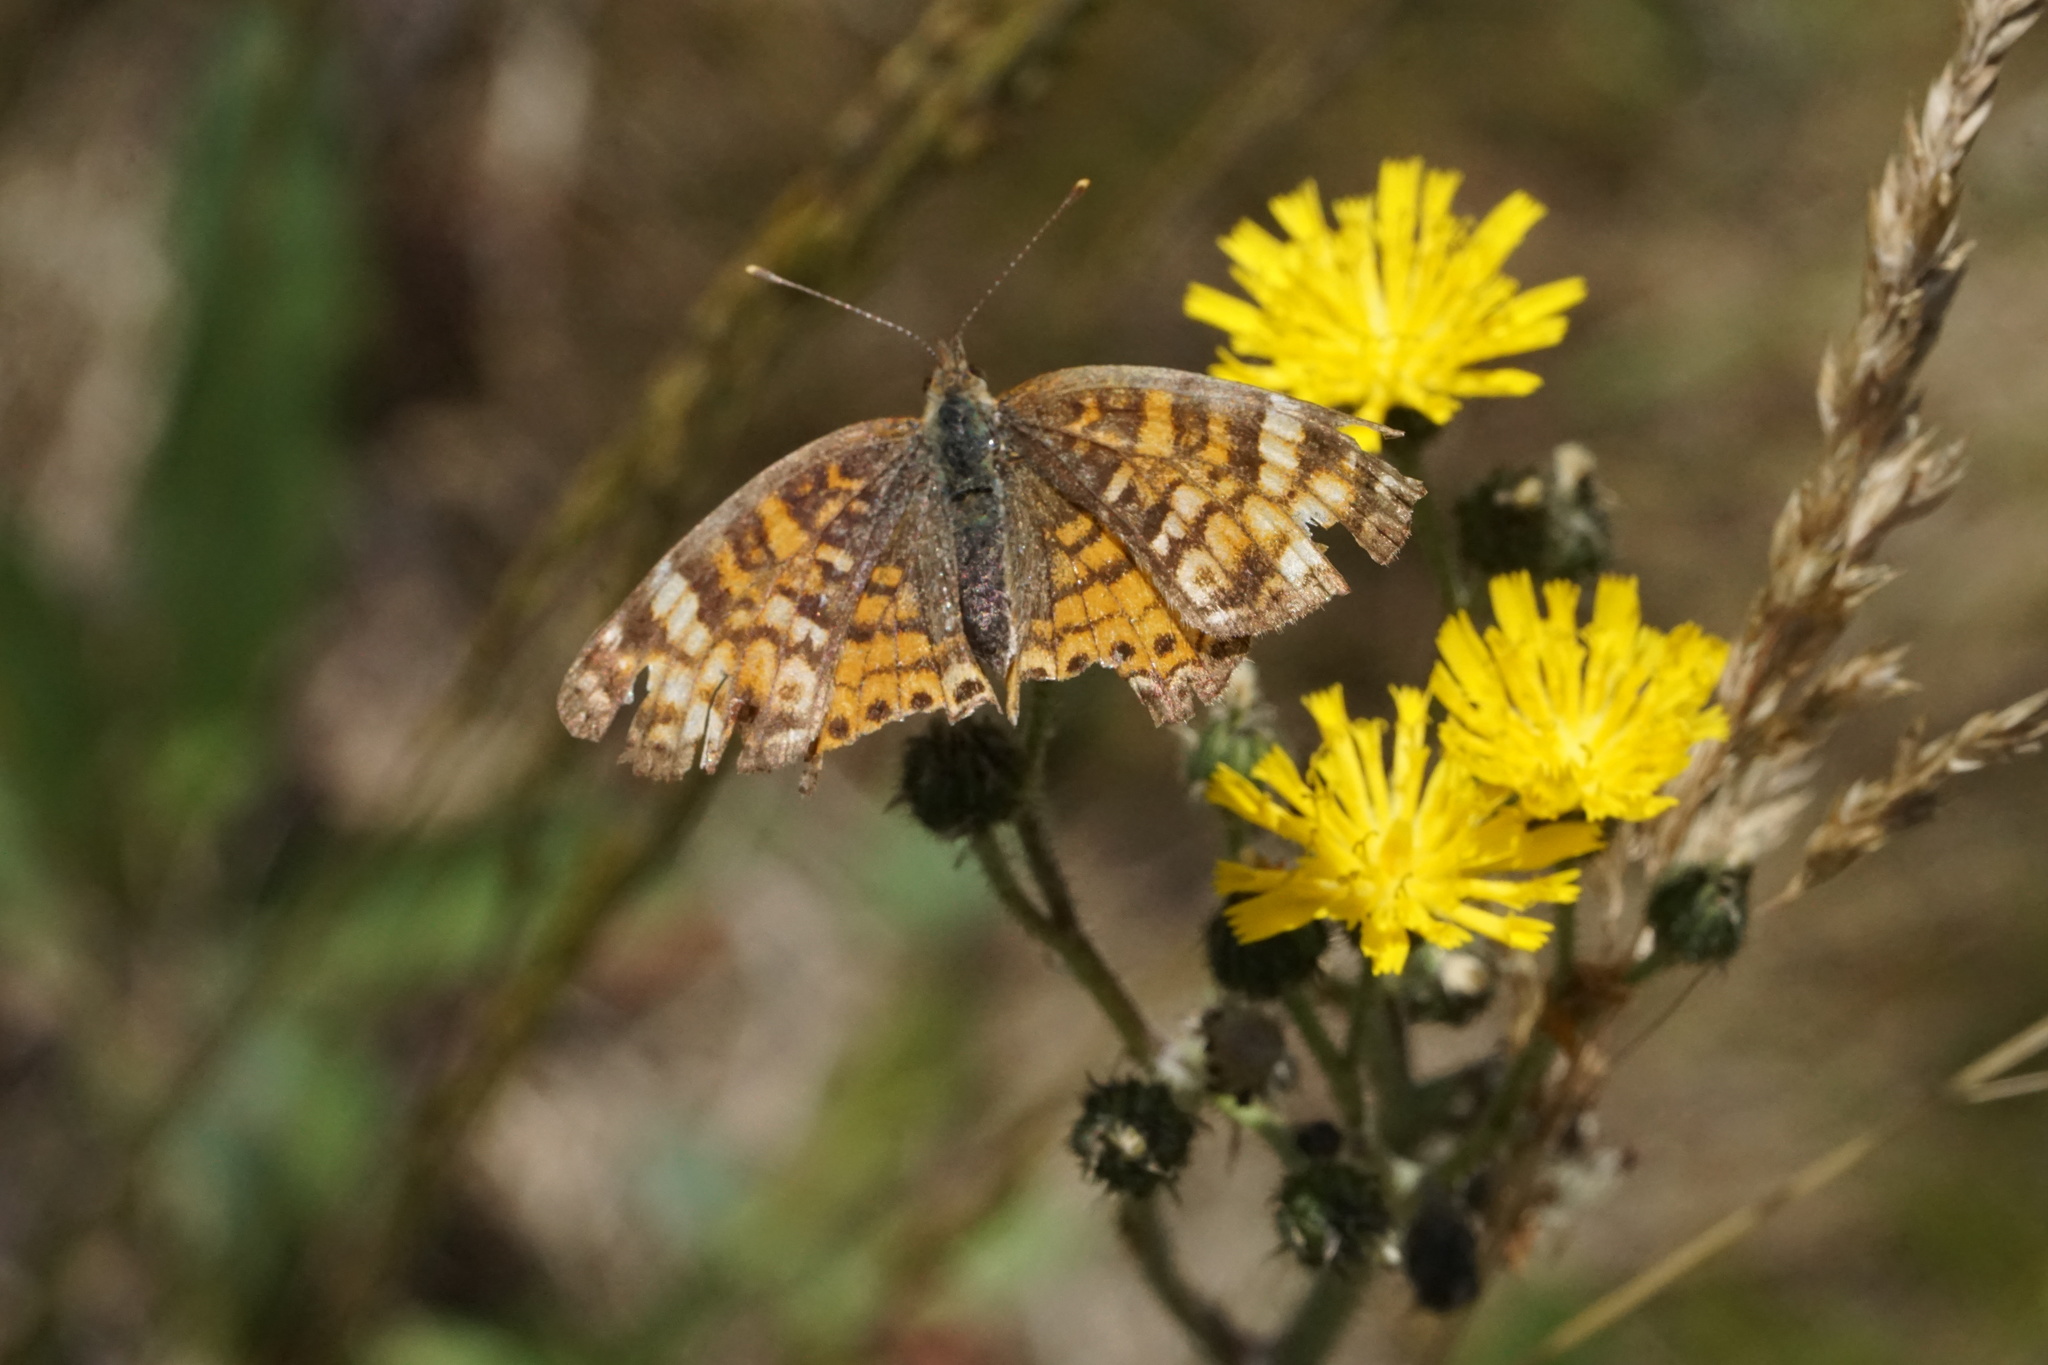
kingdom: Animalia
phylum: Arthropoda
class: Insecta
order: Lepidoptera
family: Nymphalidae
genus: Phyciodes
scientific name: Phyciodes tharos
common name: Pearl crescent
